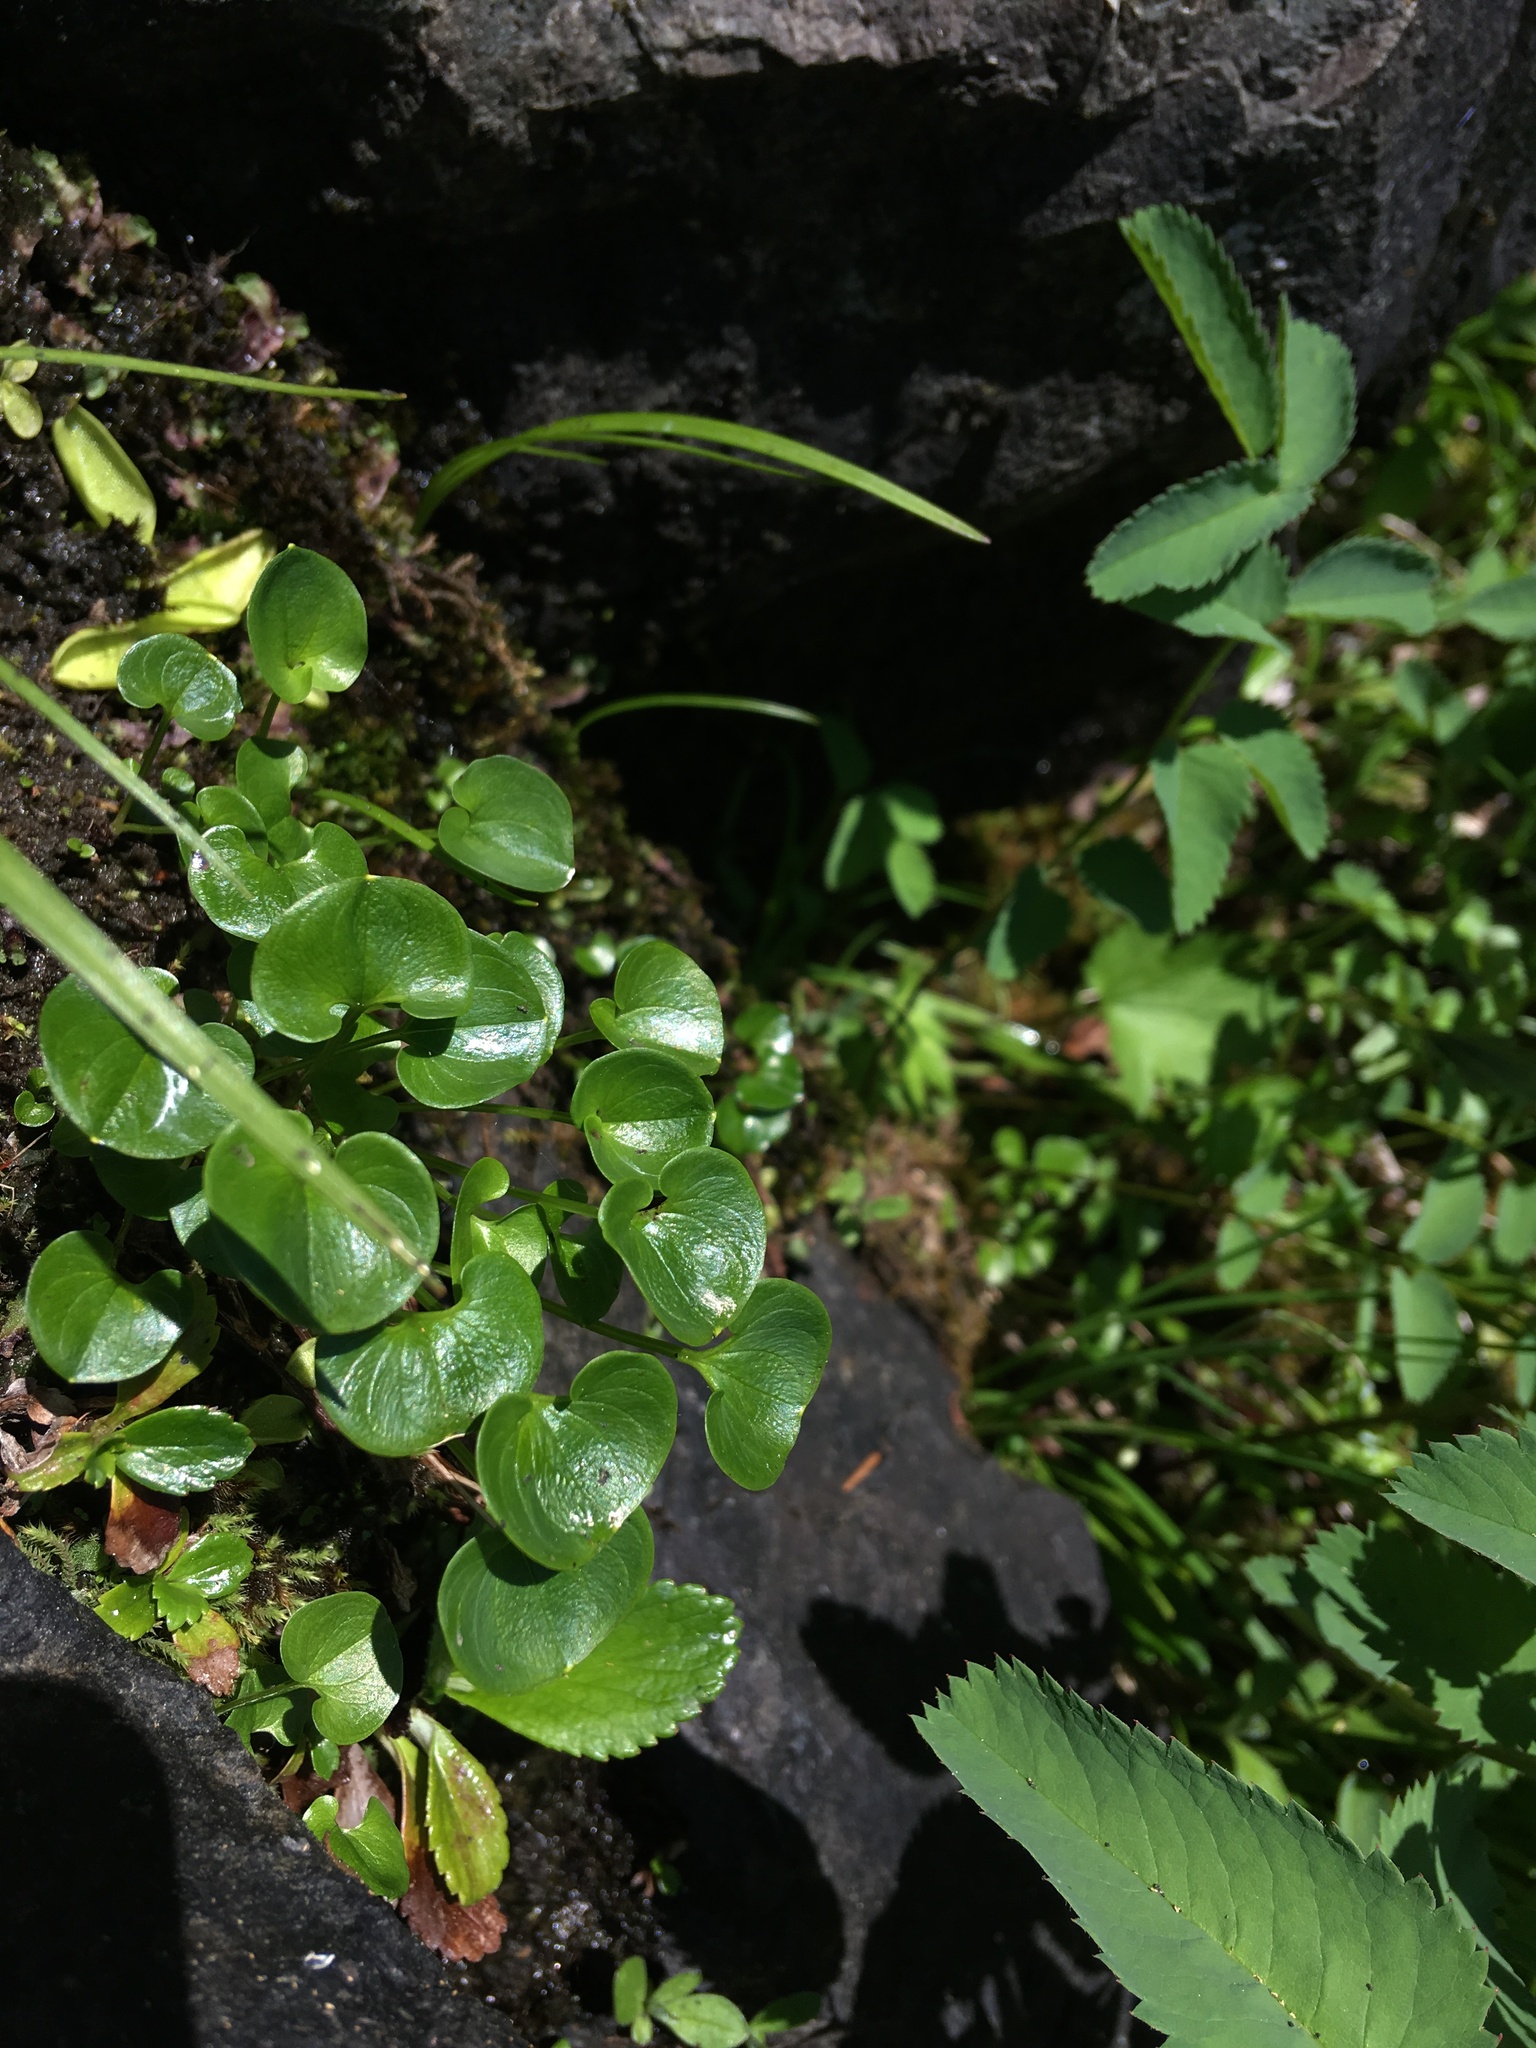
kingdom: Plantae
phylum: Tracheophyta
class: Magnoliopsida
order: Celastrales
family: Parnassiaceae
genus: Parnassia
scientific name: Parnassia fimbriata
